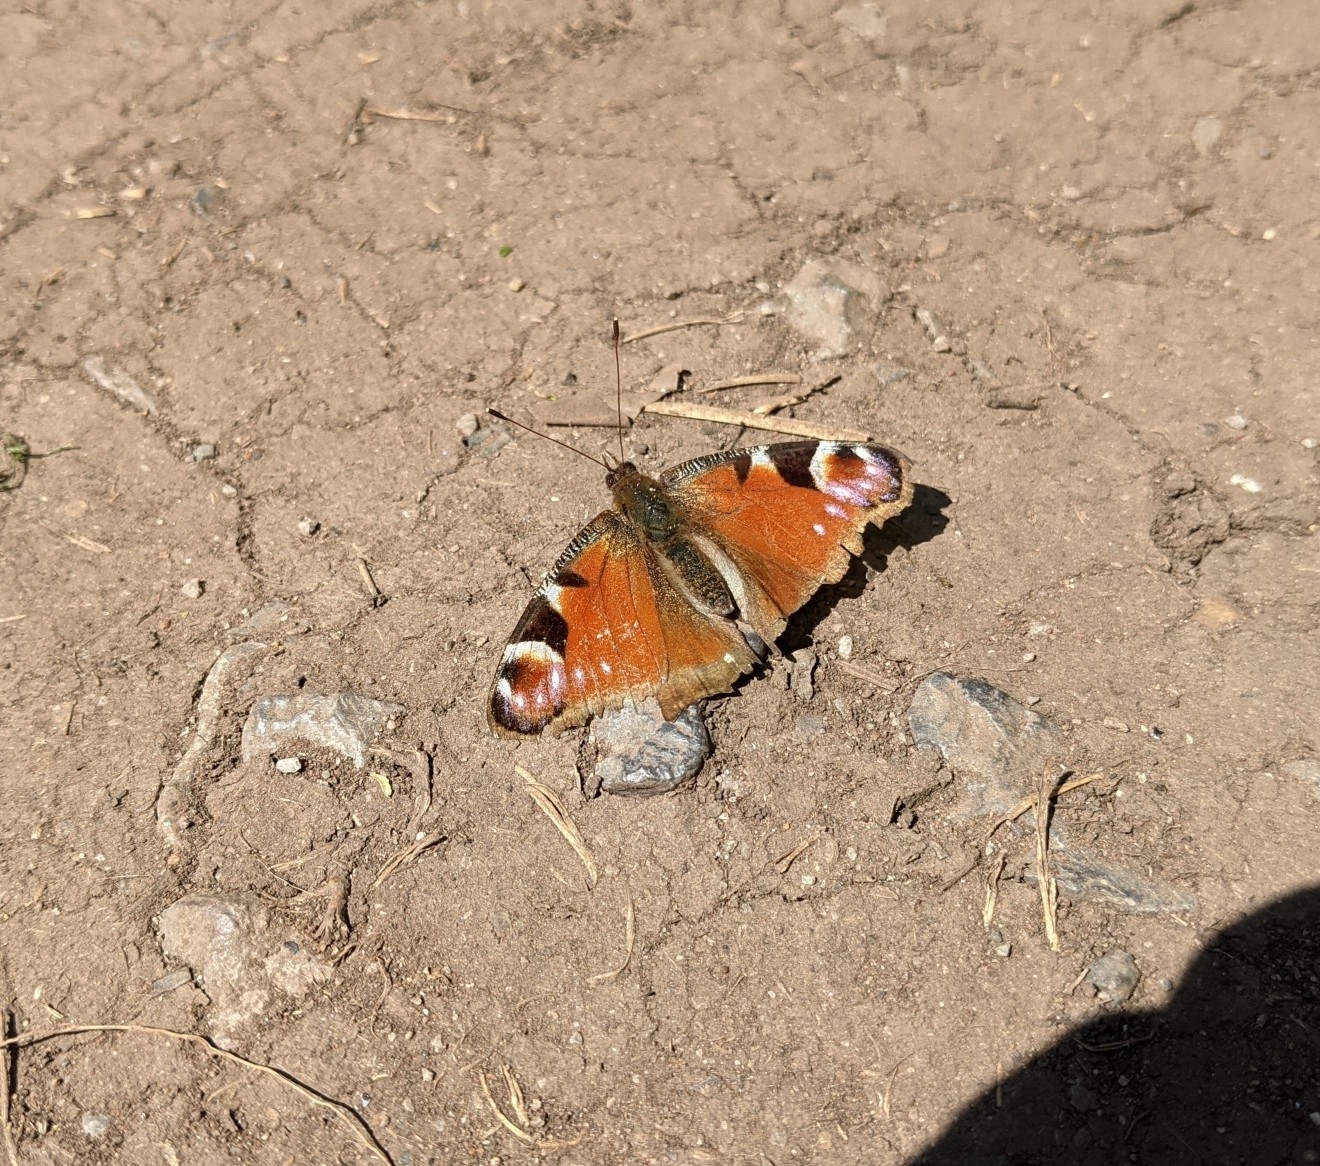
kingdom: Animalia
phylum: Arthropoda
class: Insecta
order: Lepidoptera
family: Nymphalidae
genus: Aglais
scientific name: Aglais io
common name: Peacock
